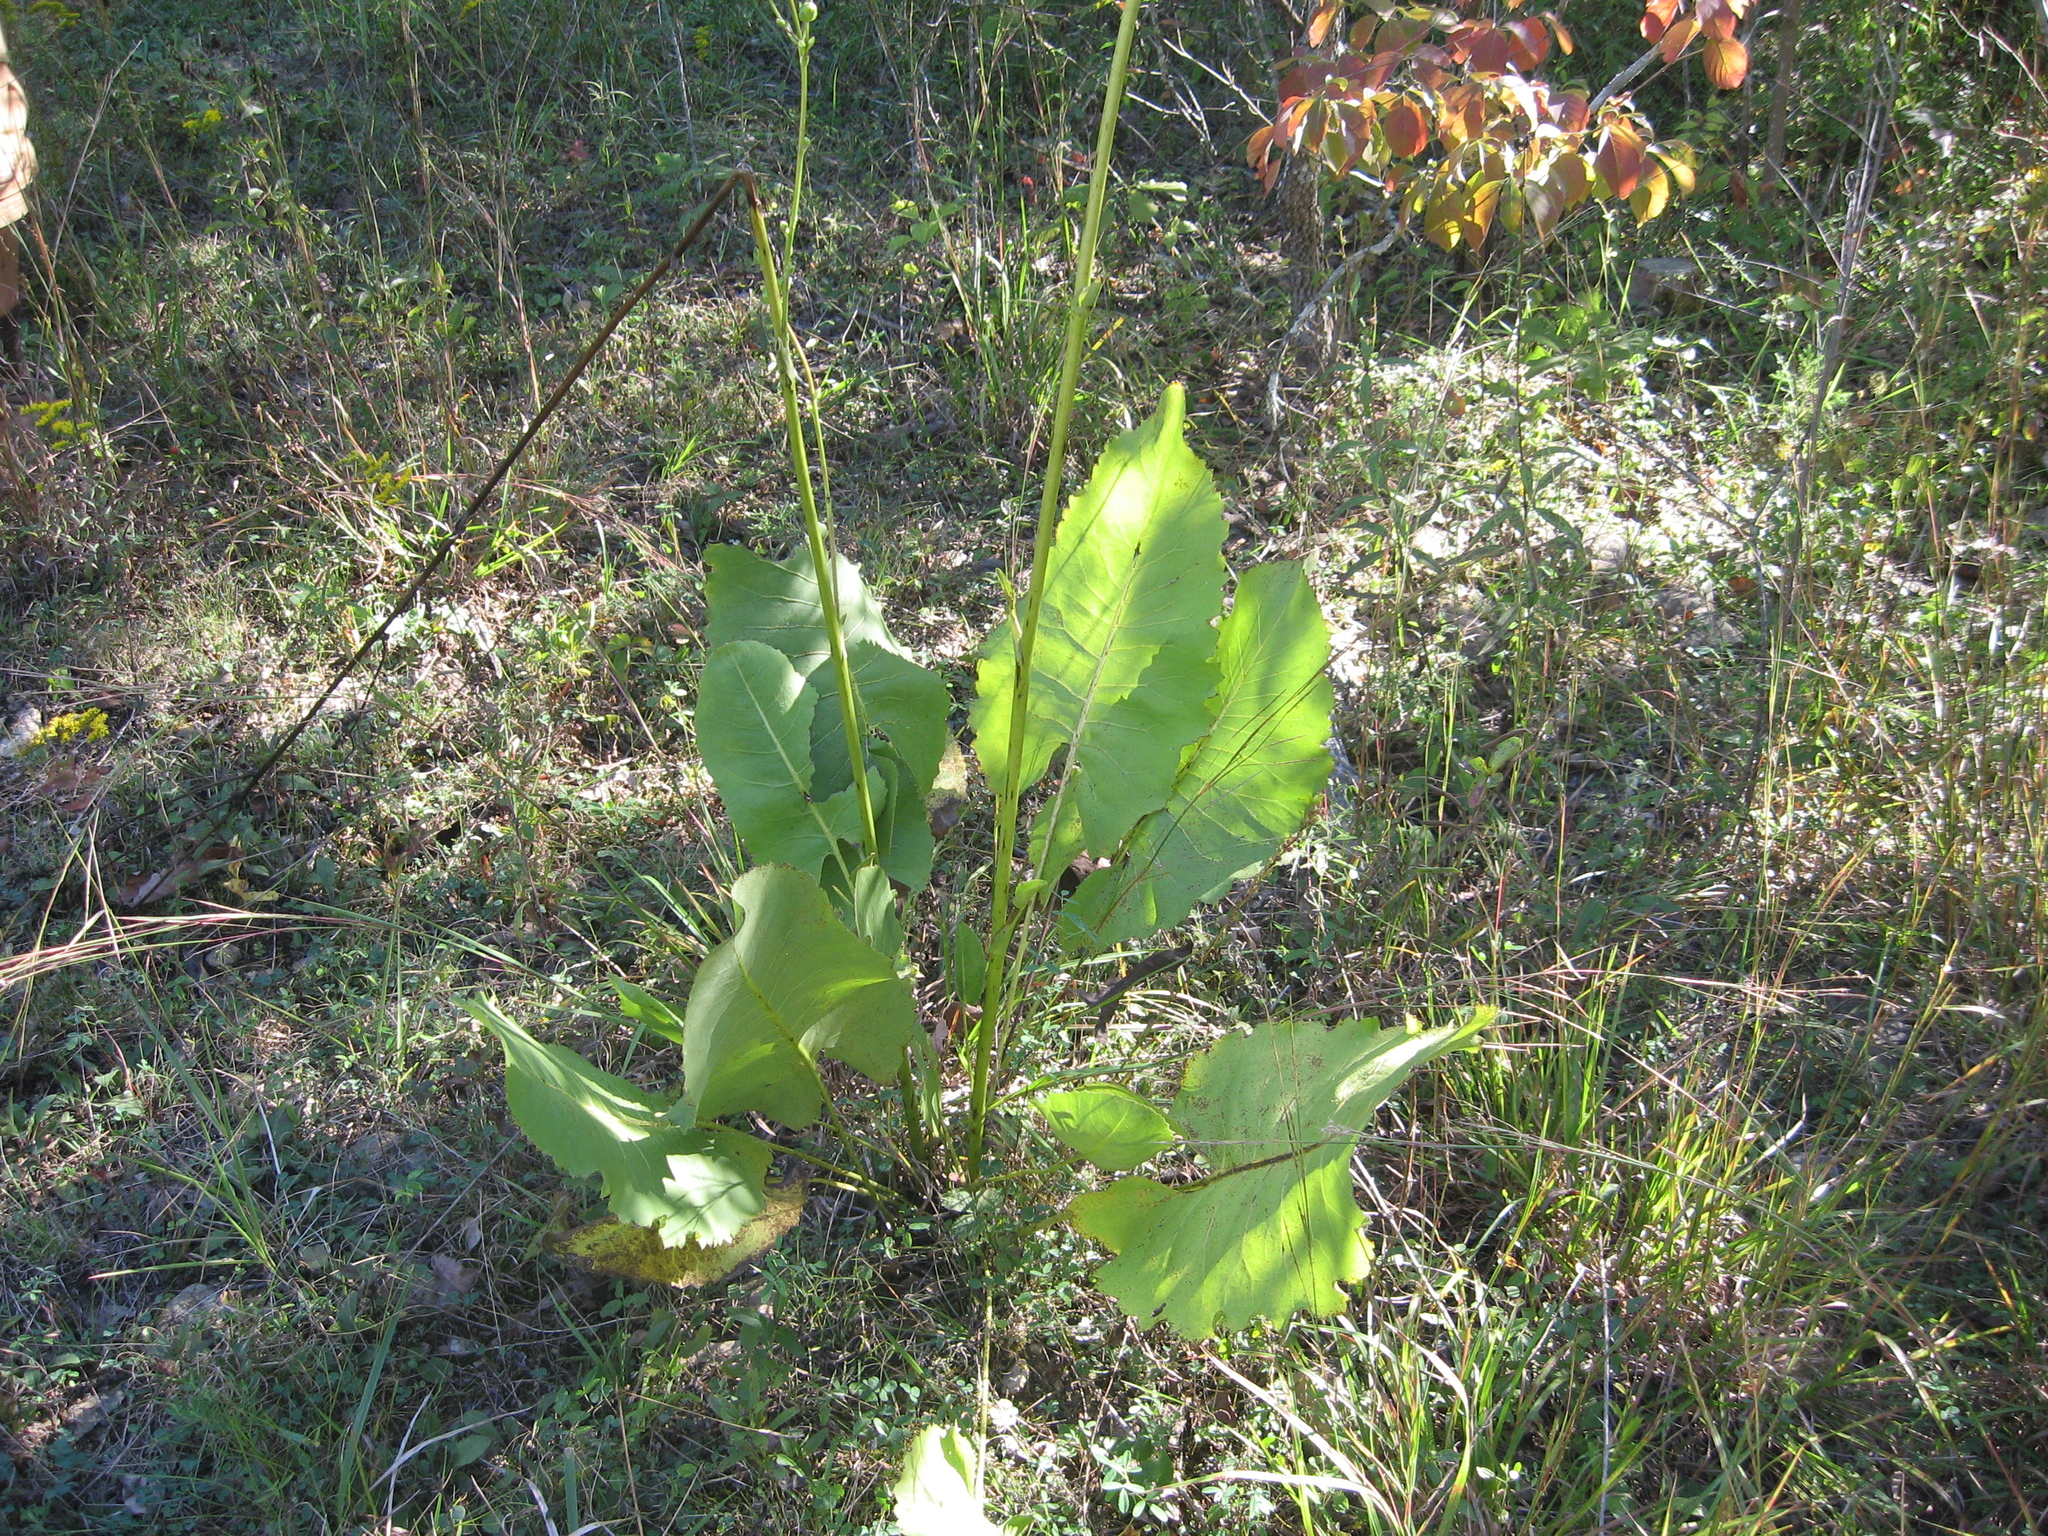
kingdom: Plantae
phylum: Tracheophyta
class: Magnoliopsida
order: Asterales
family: Asteraceae
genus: Silphium
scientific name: Silphium terebinthinaceum
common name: Basal-leaf rosinweed
